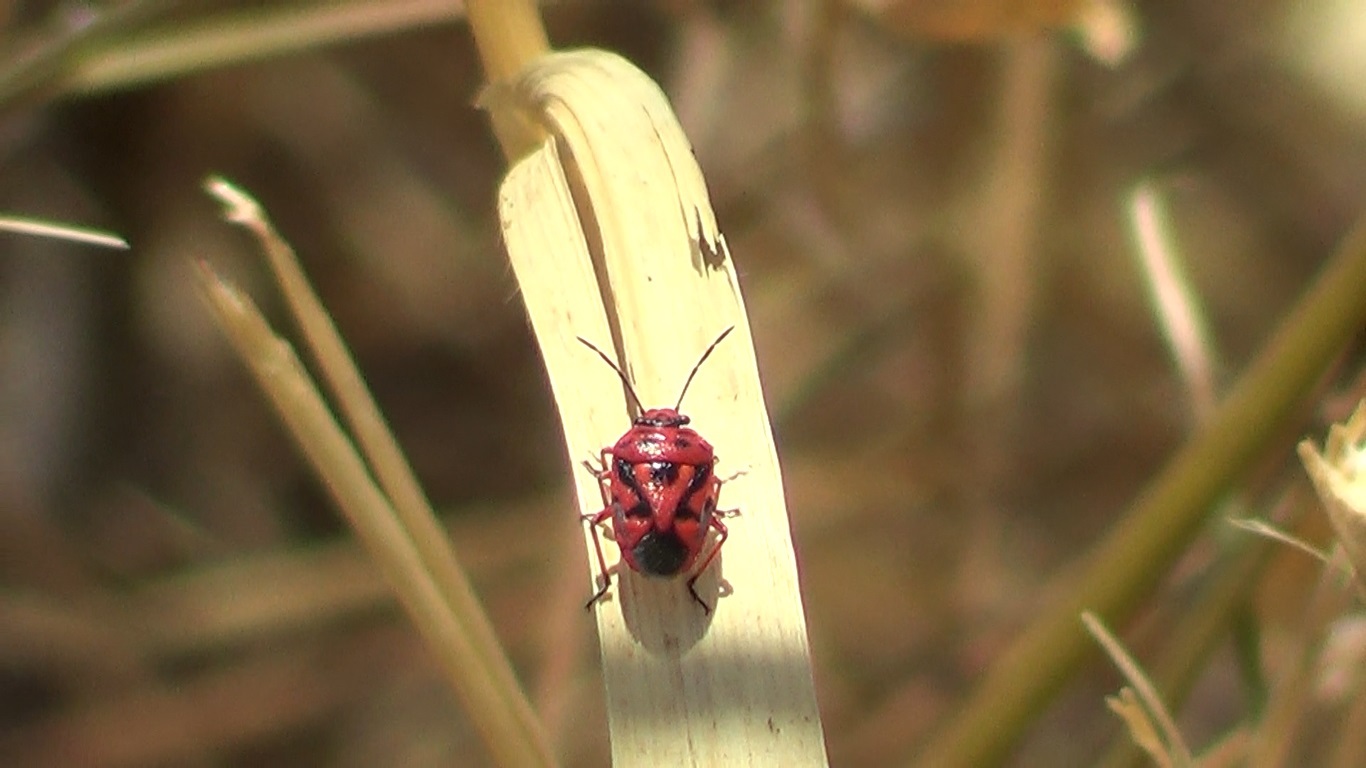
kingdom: Animalia
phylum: Arthropoda
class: Insecta
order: Hemiptera
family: Pentatomidae
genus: Eurydema
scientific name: Eurydema ornata
